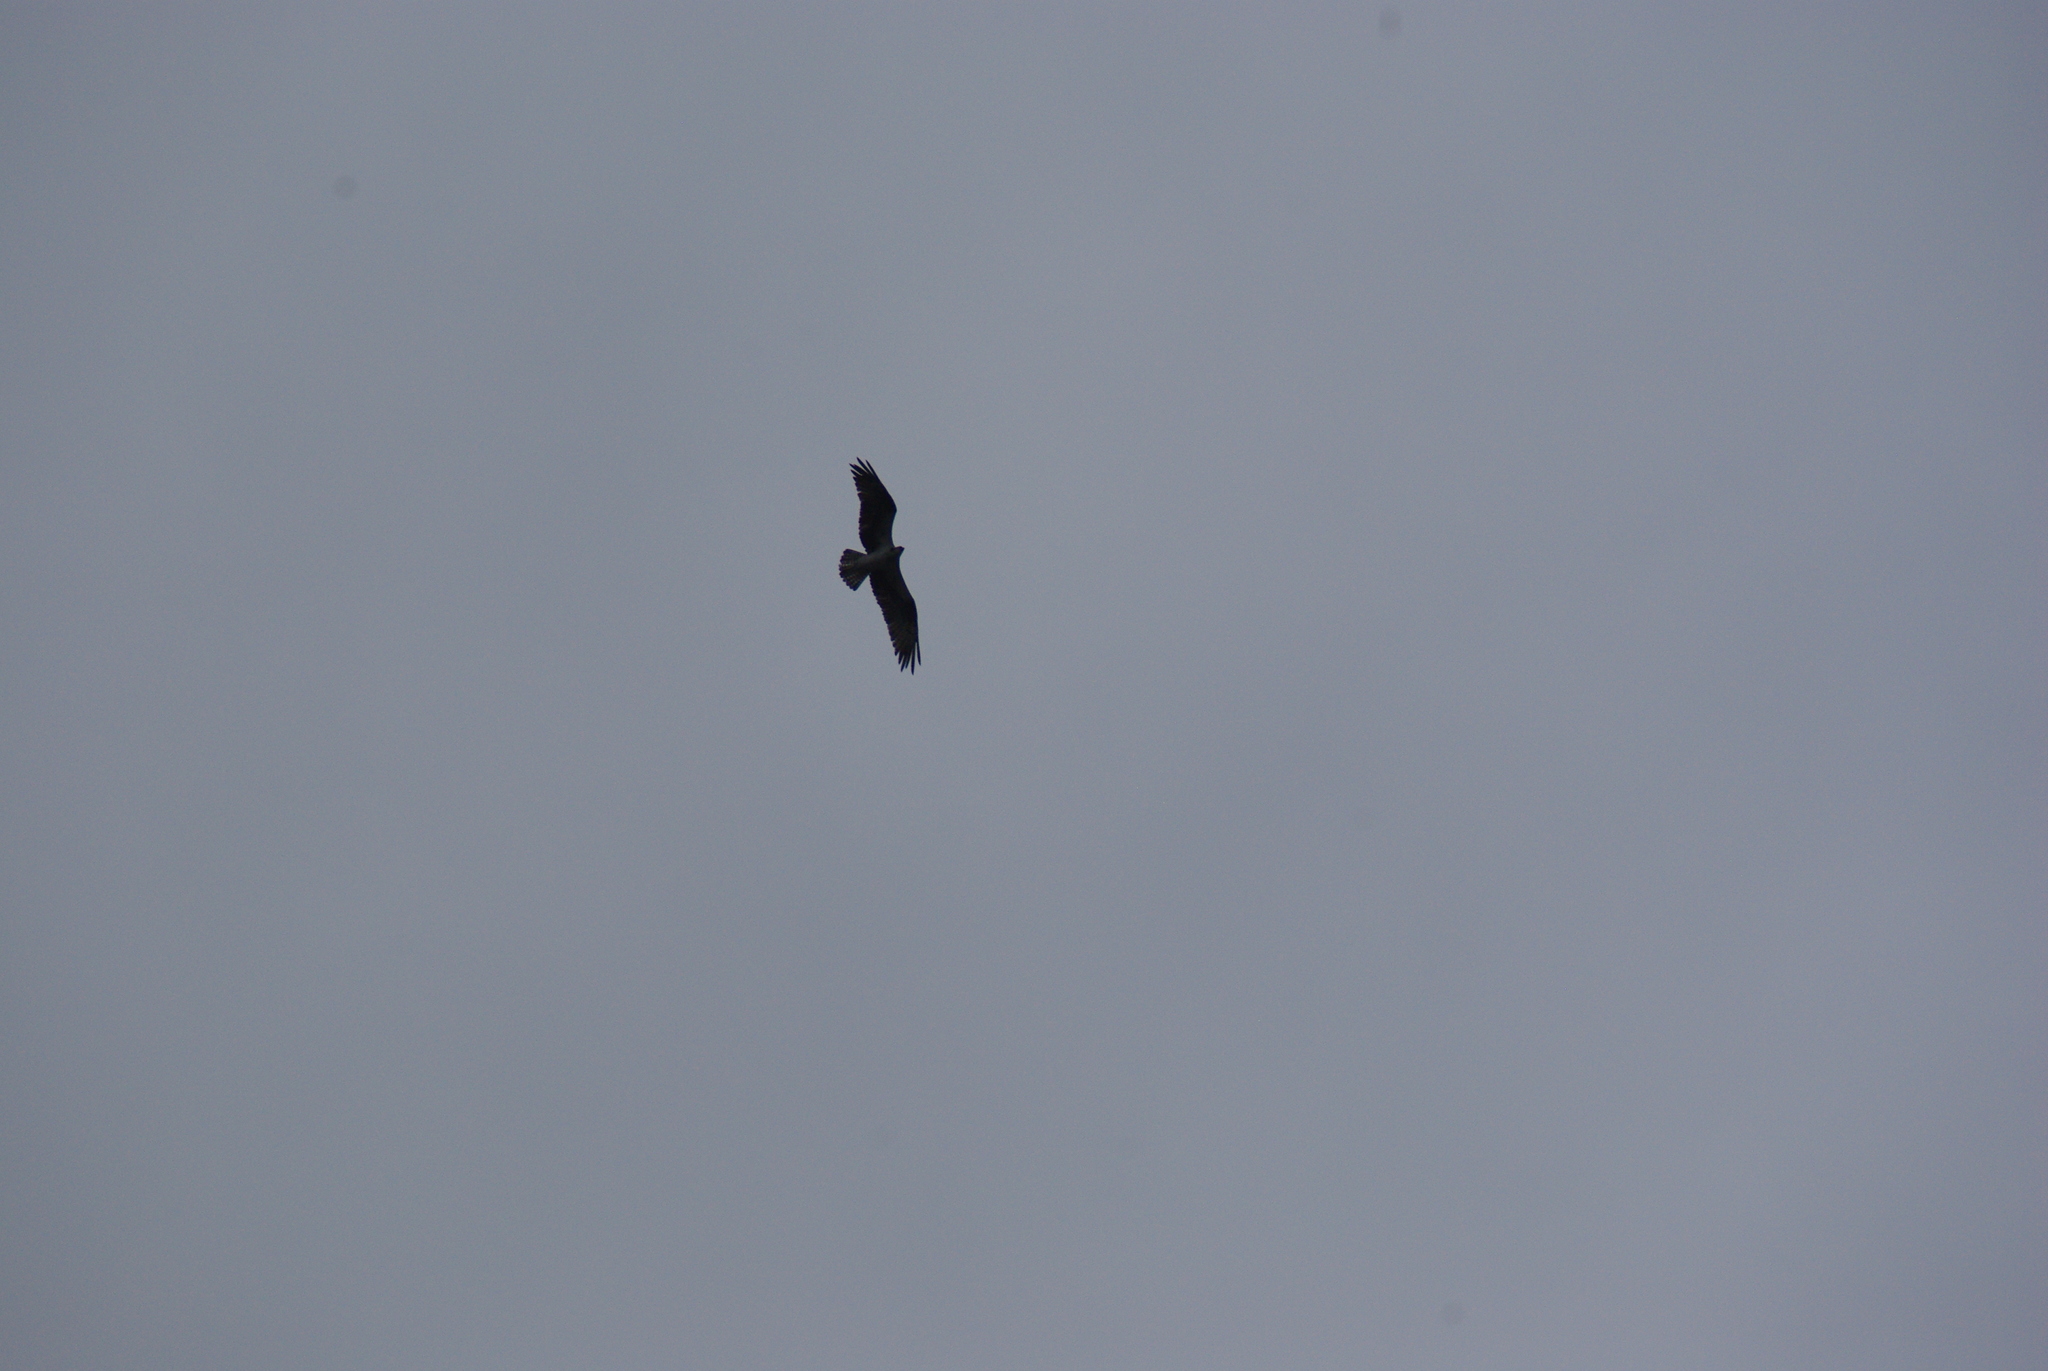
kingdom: Animalia
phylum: Chordata
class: Aves
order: Accipitriformes
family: Pandionidae
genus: Pandion
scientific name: Pandion haliaetus
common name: Osprey
